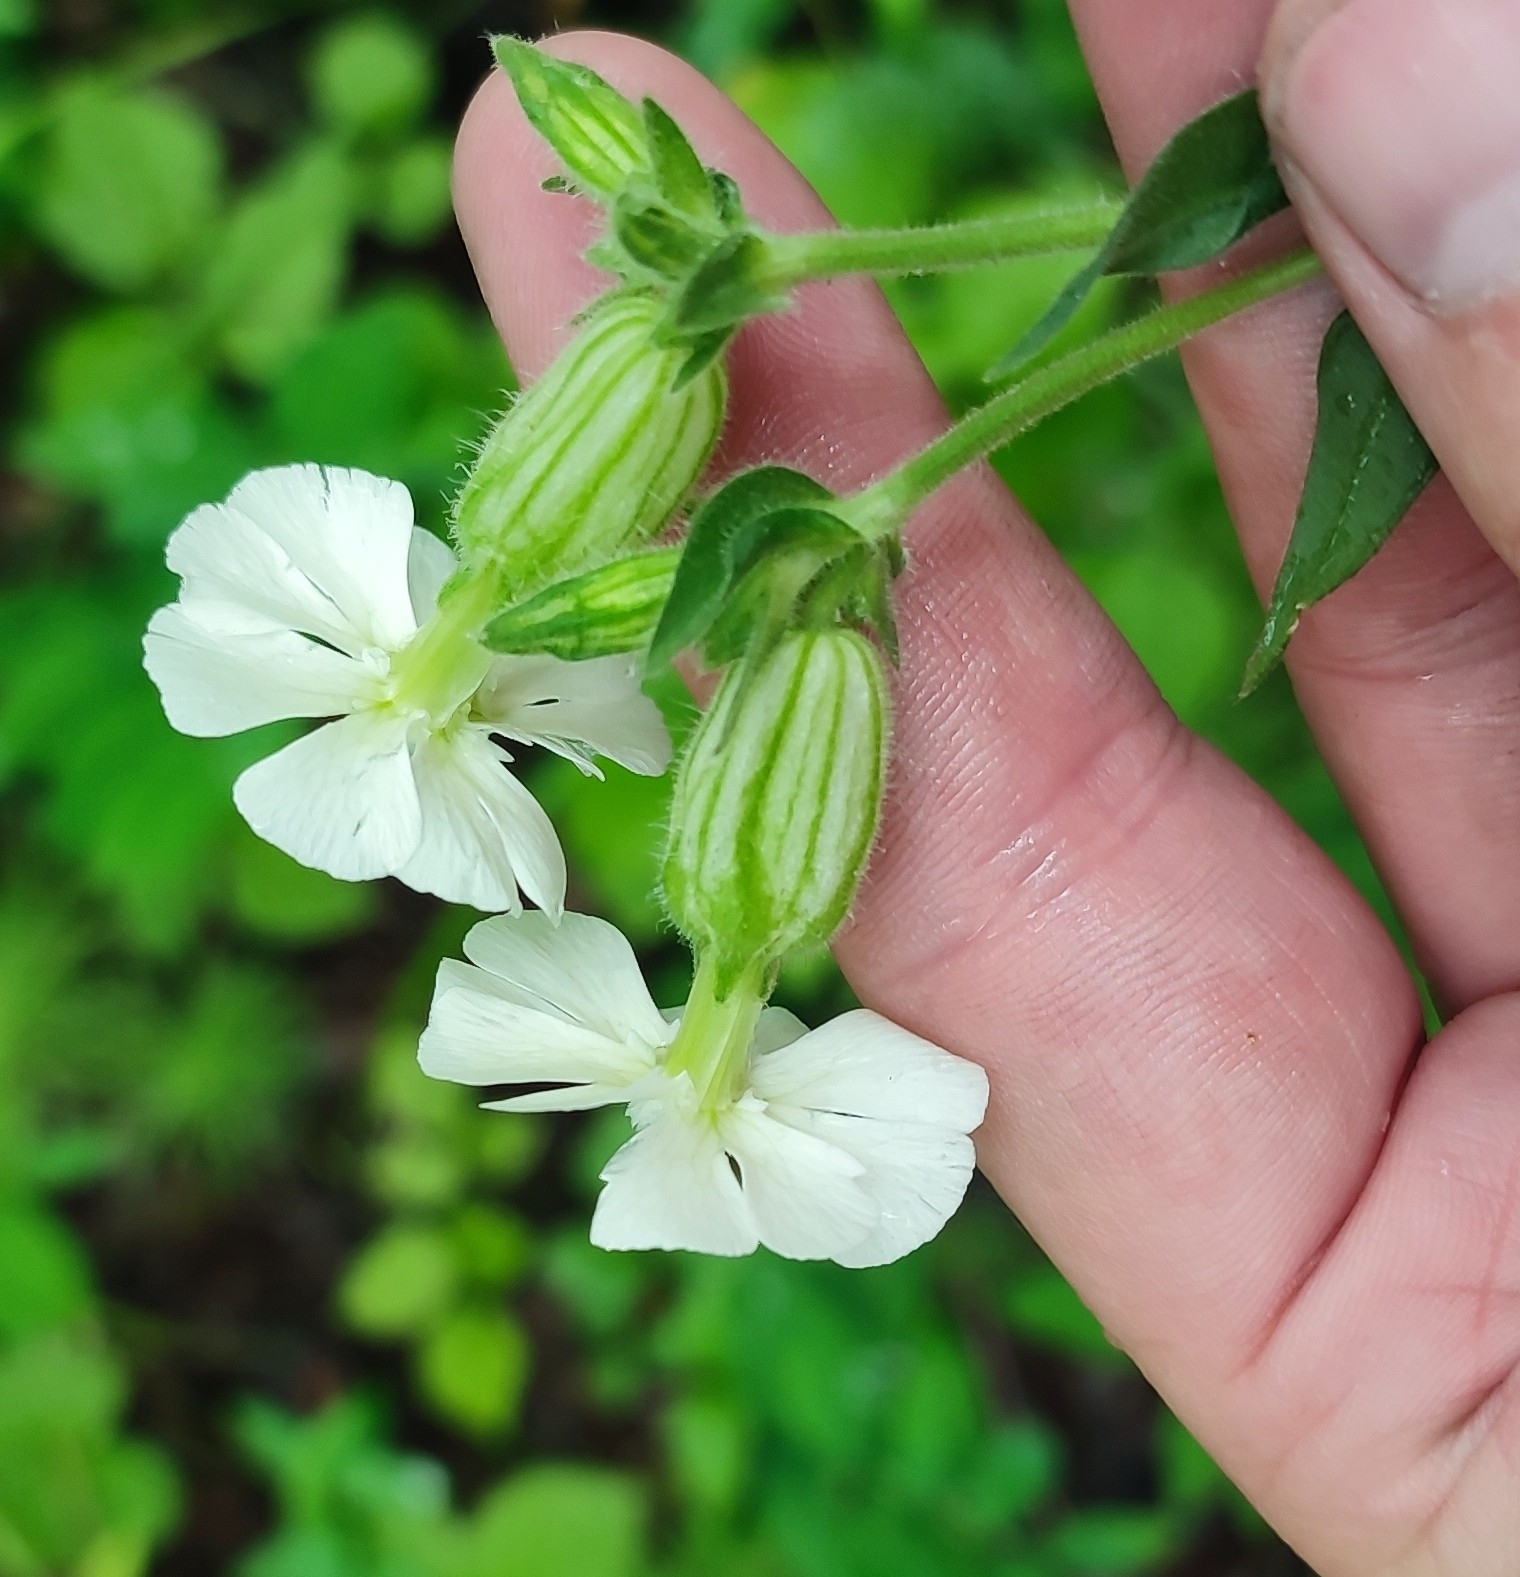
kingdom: Plantae
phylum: Tracheophyta
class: Magnoliopsida
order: Caryophyllales
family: Caryophyllaceae
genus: Silene
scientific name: Silene latifolia
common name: White campion
